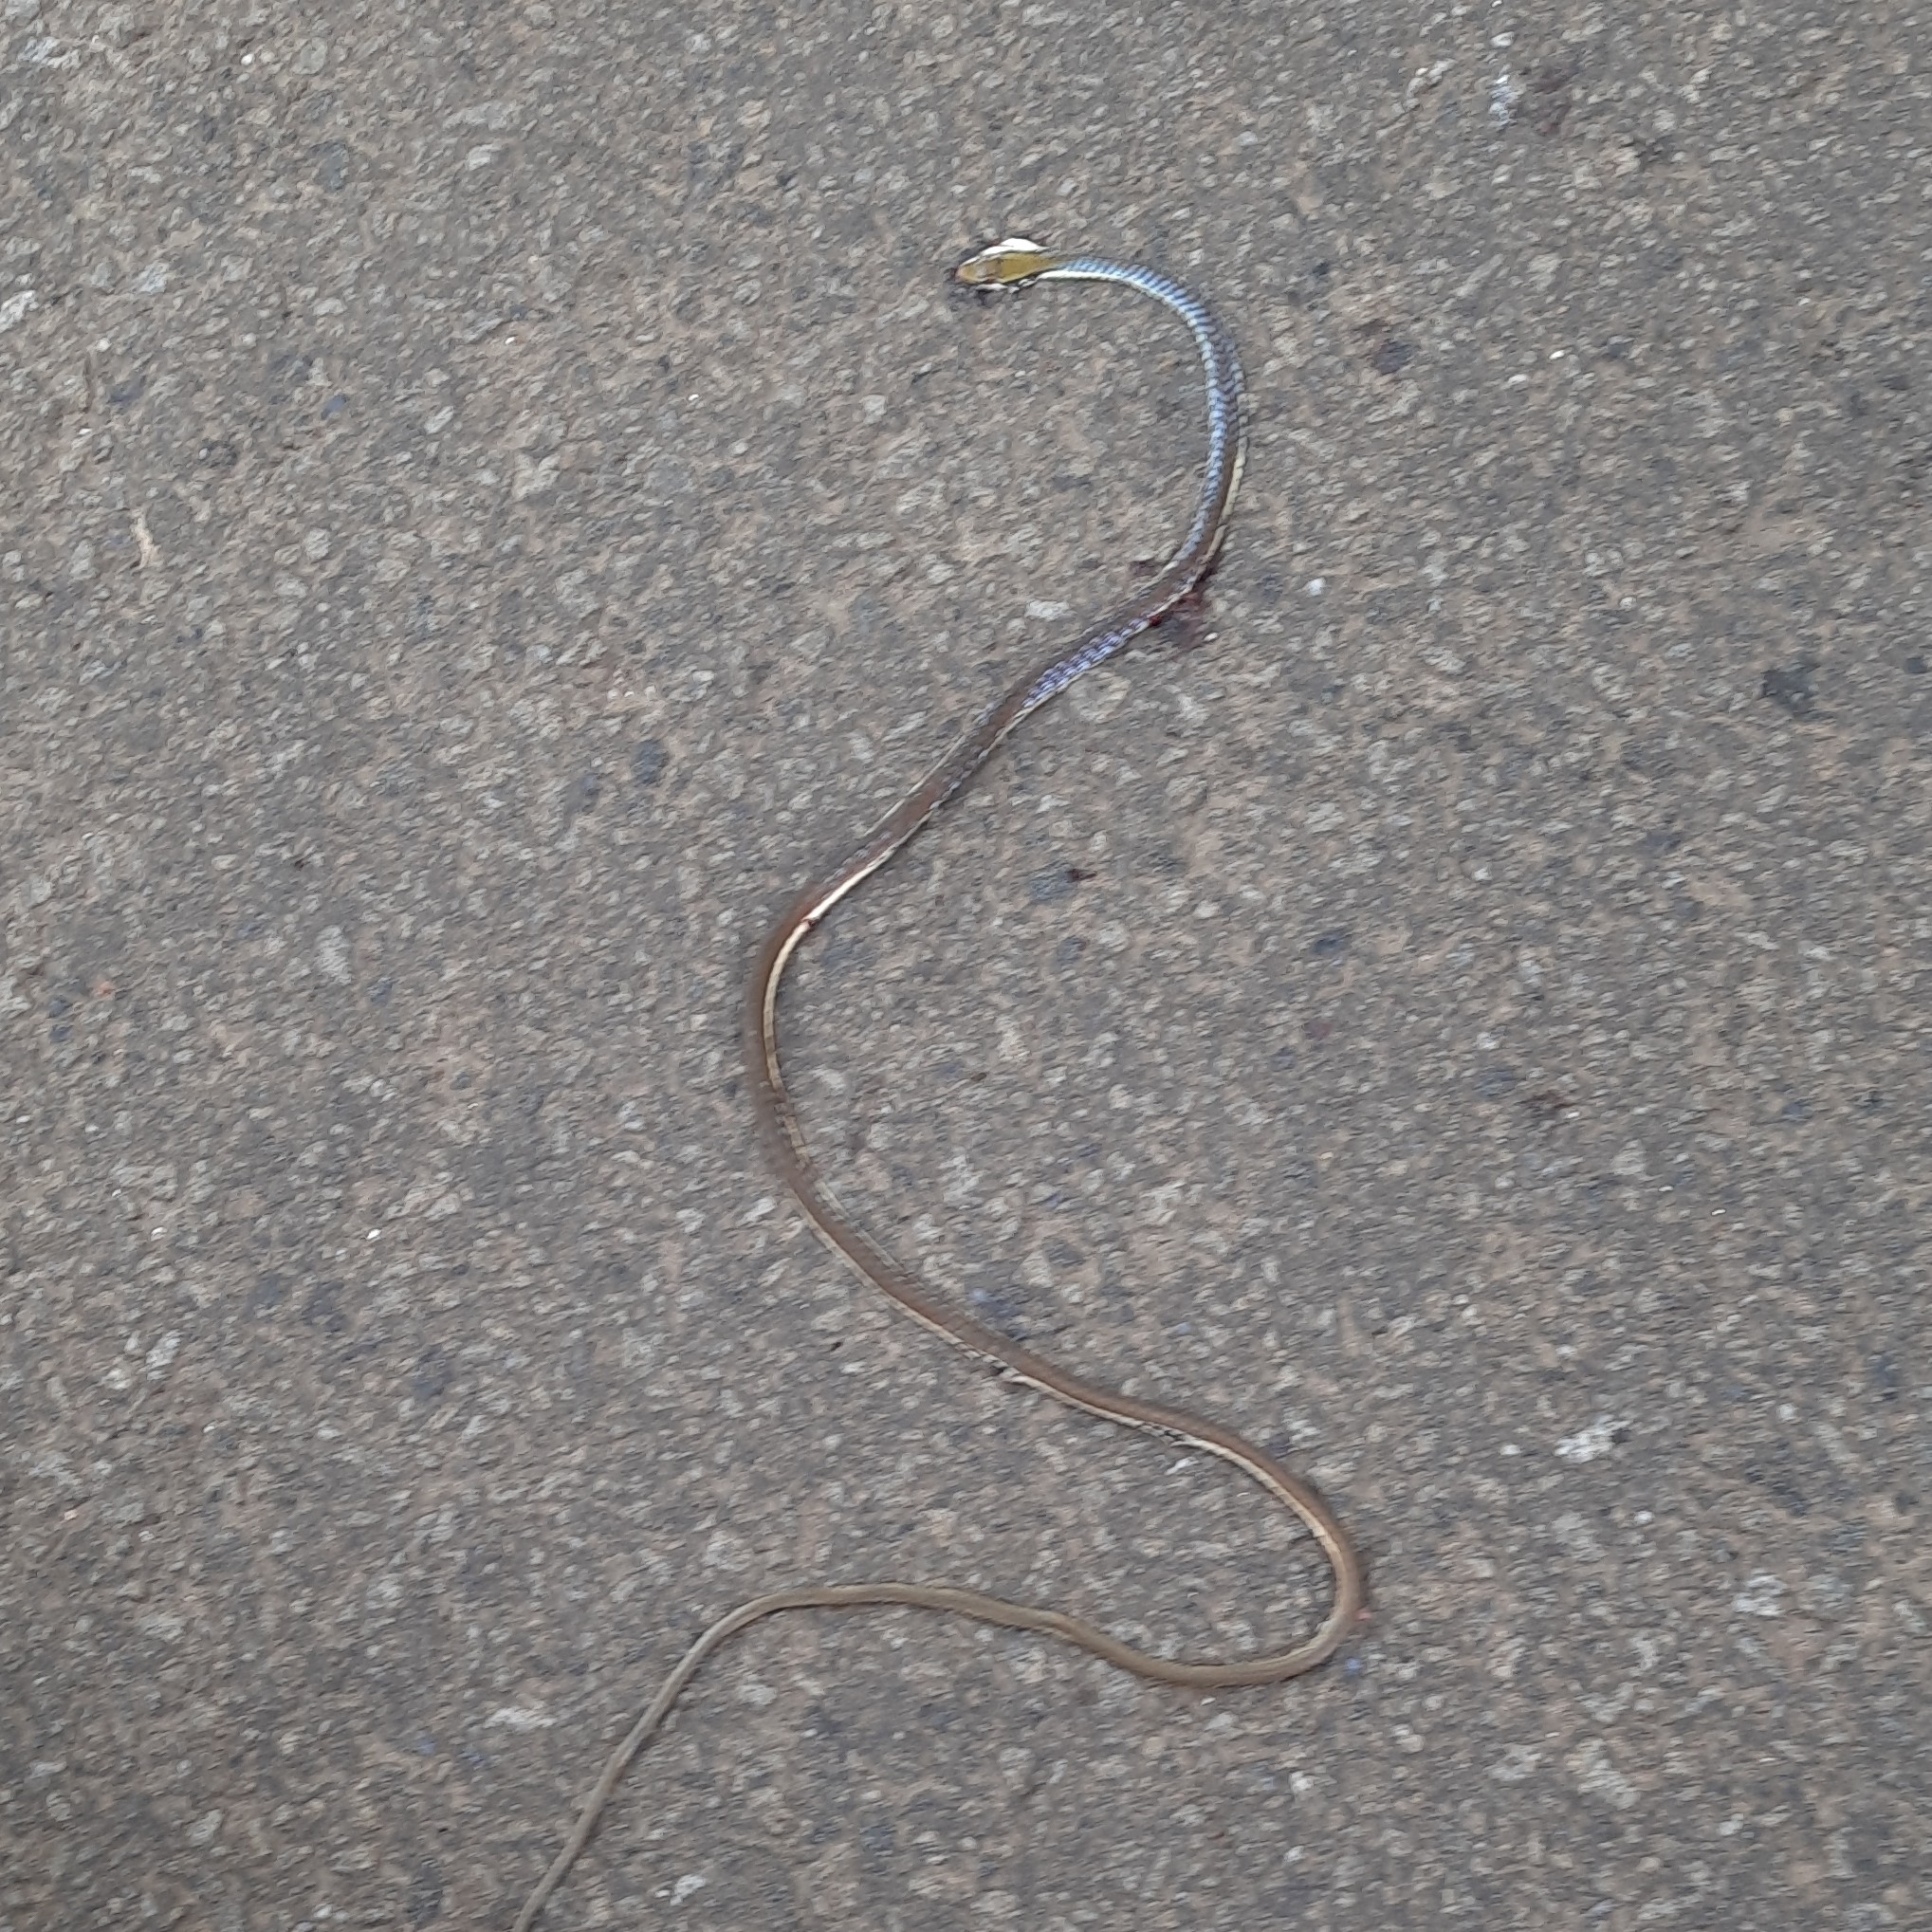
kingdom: Animalia
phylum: Chordata
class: Squamata
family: Colubridae
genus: Dendrelaphis
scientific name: Dendrelaphis girii
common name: Giri's bronzeback tree snake
